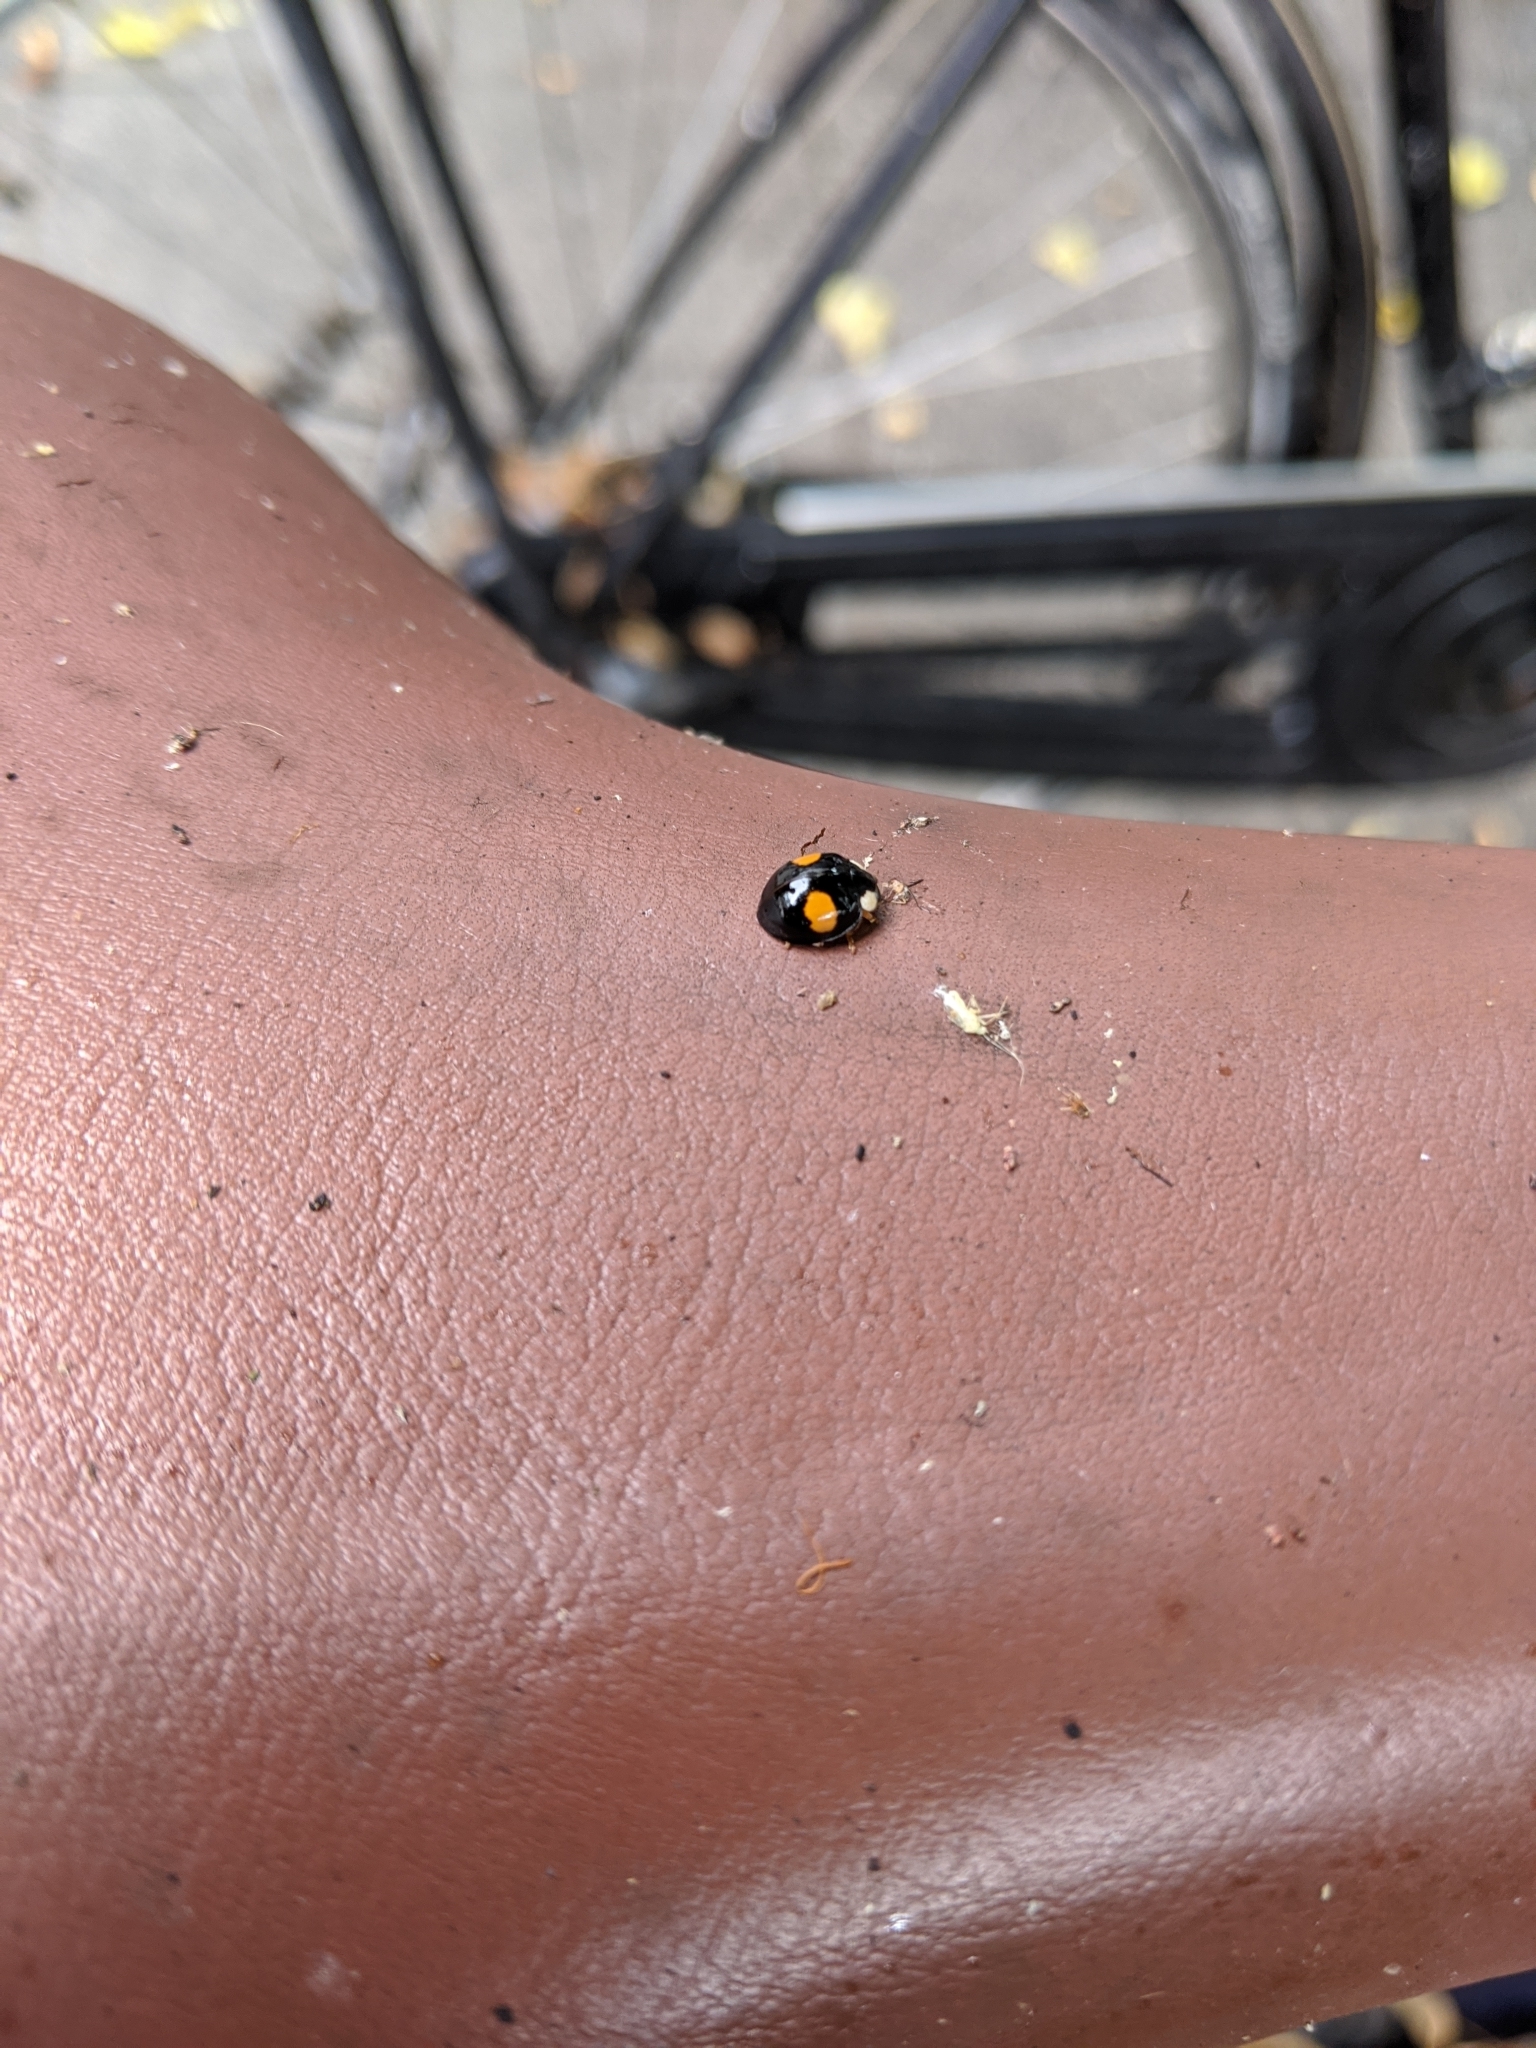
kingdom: Animalia
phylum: Arthropoda
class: Insecta
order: Coleoptera
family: Coccinellidae
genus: Harmonia
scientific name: Harmonia axyridis
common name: Harlequin ladybird
